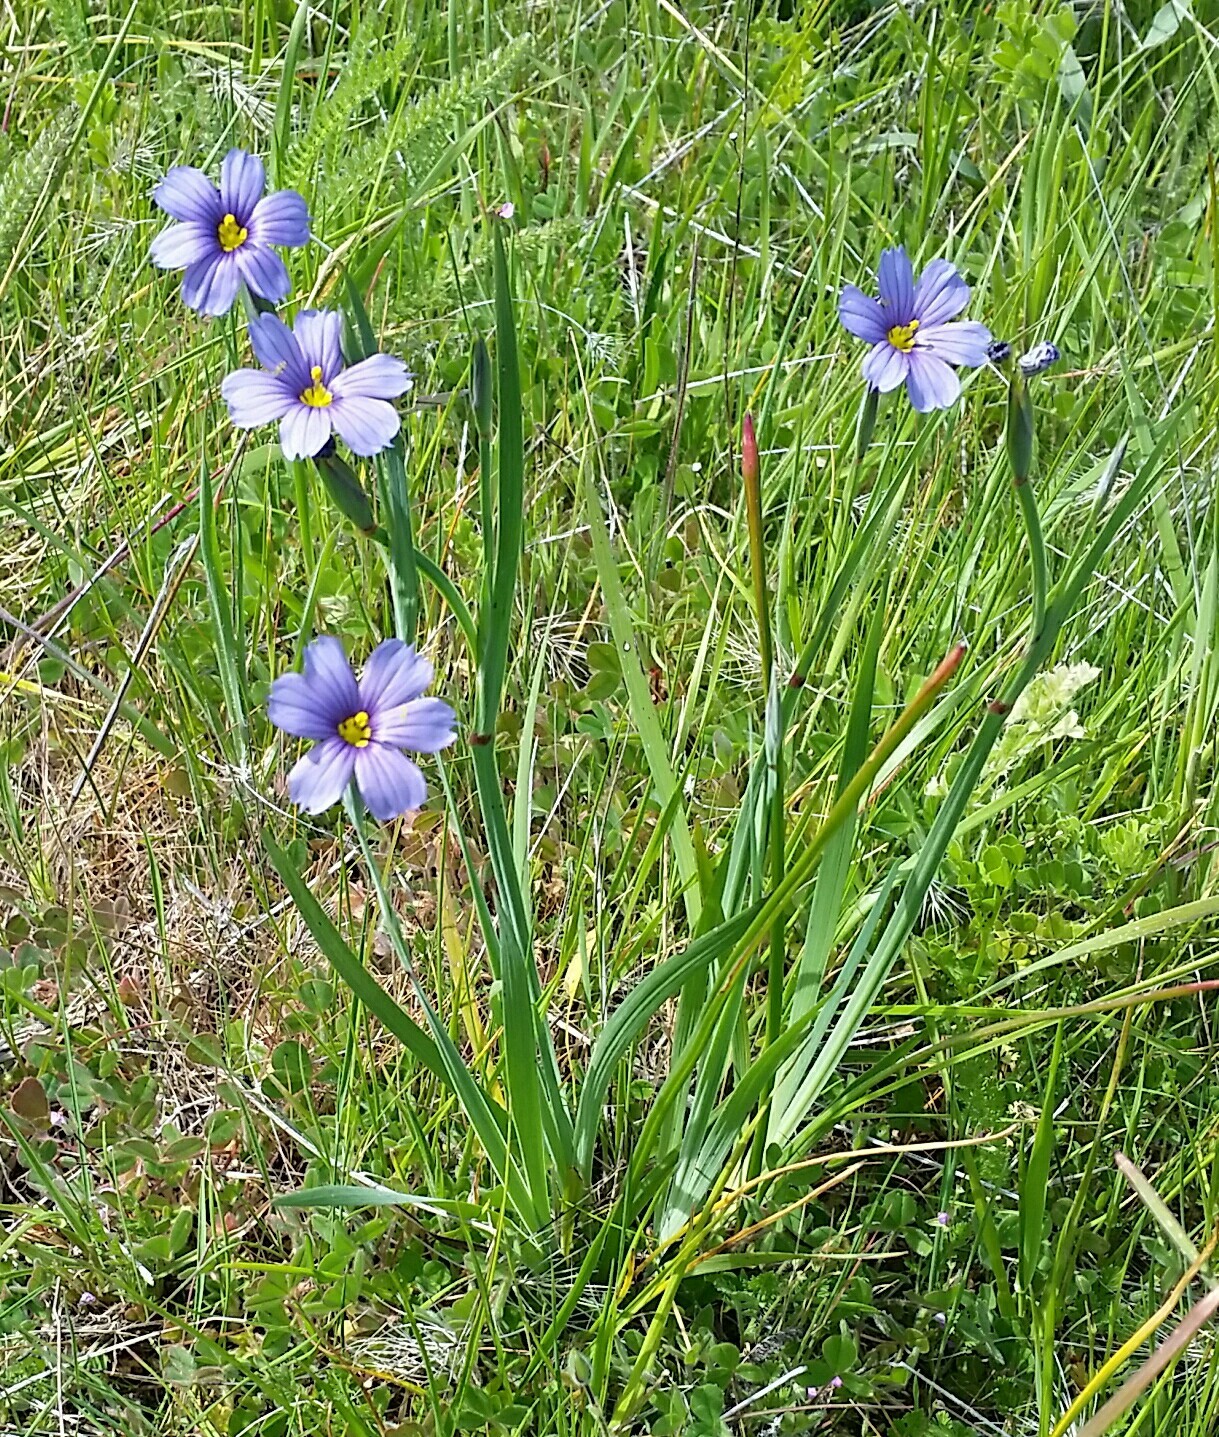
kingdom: Plantae
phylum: Tracheophyta
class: Liliopsida
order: Asparagales
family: Iridaceae
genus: Sisyrinchium
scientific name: Sisyrinchium bellum
